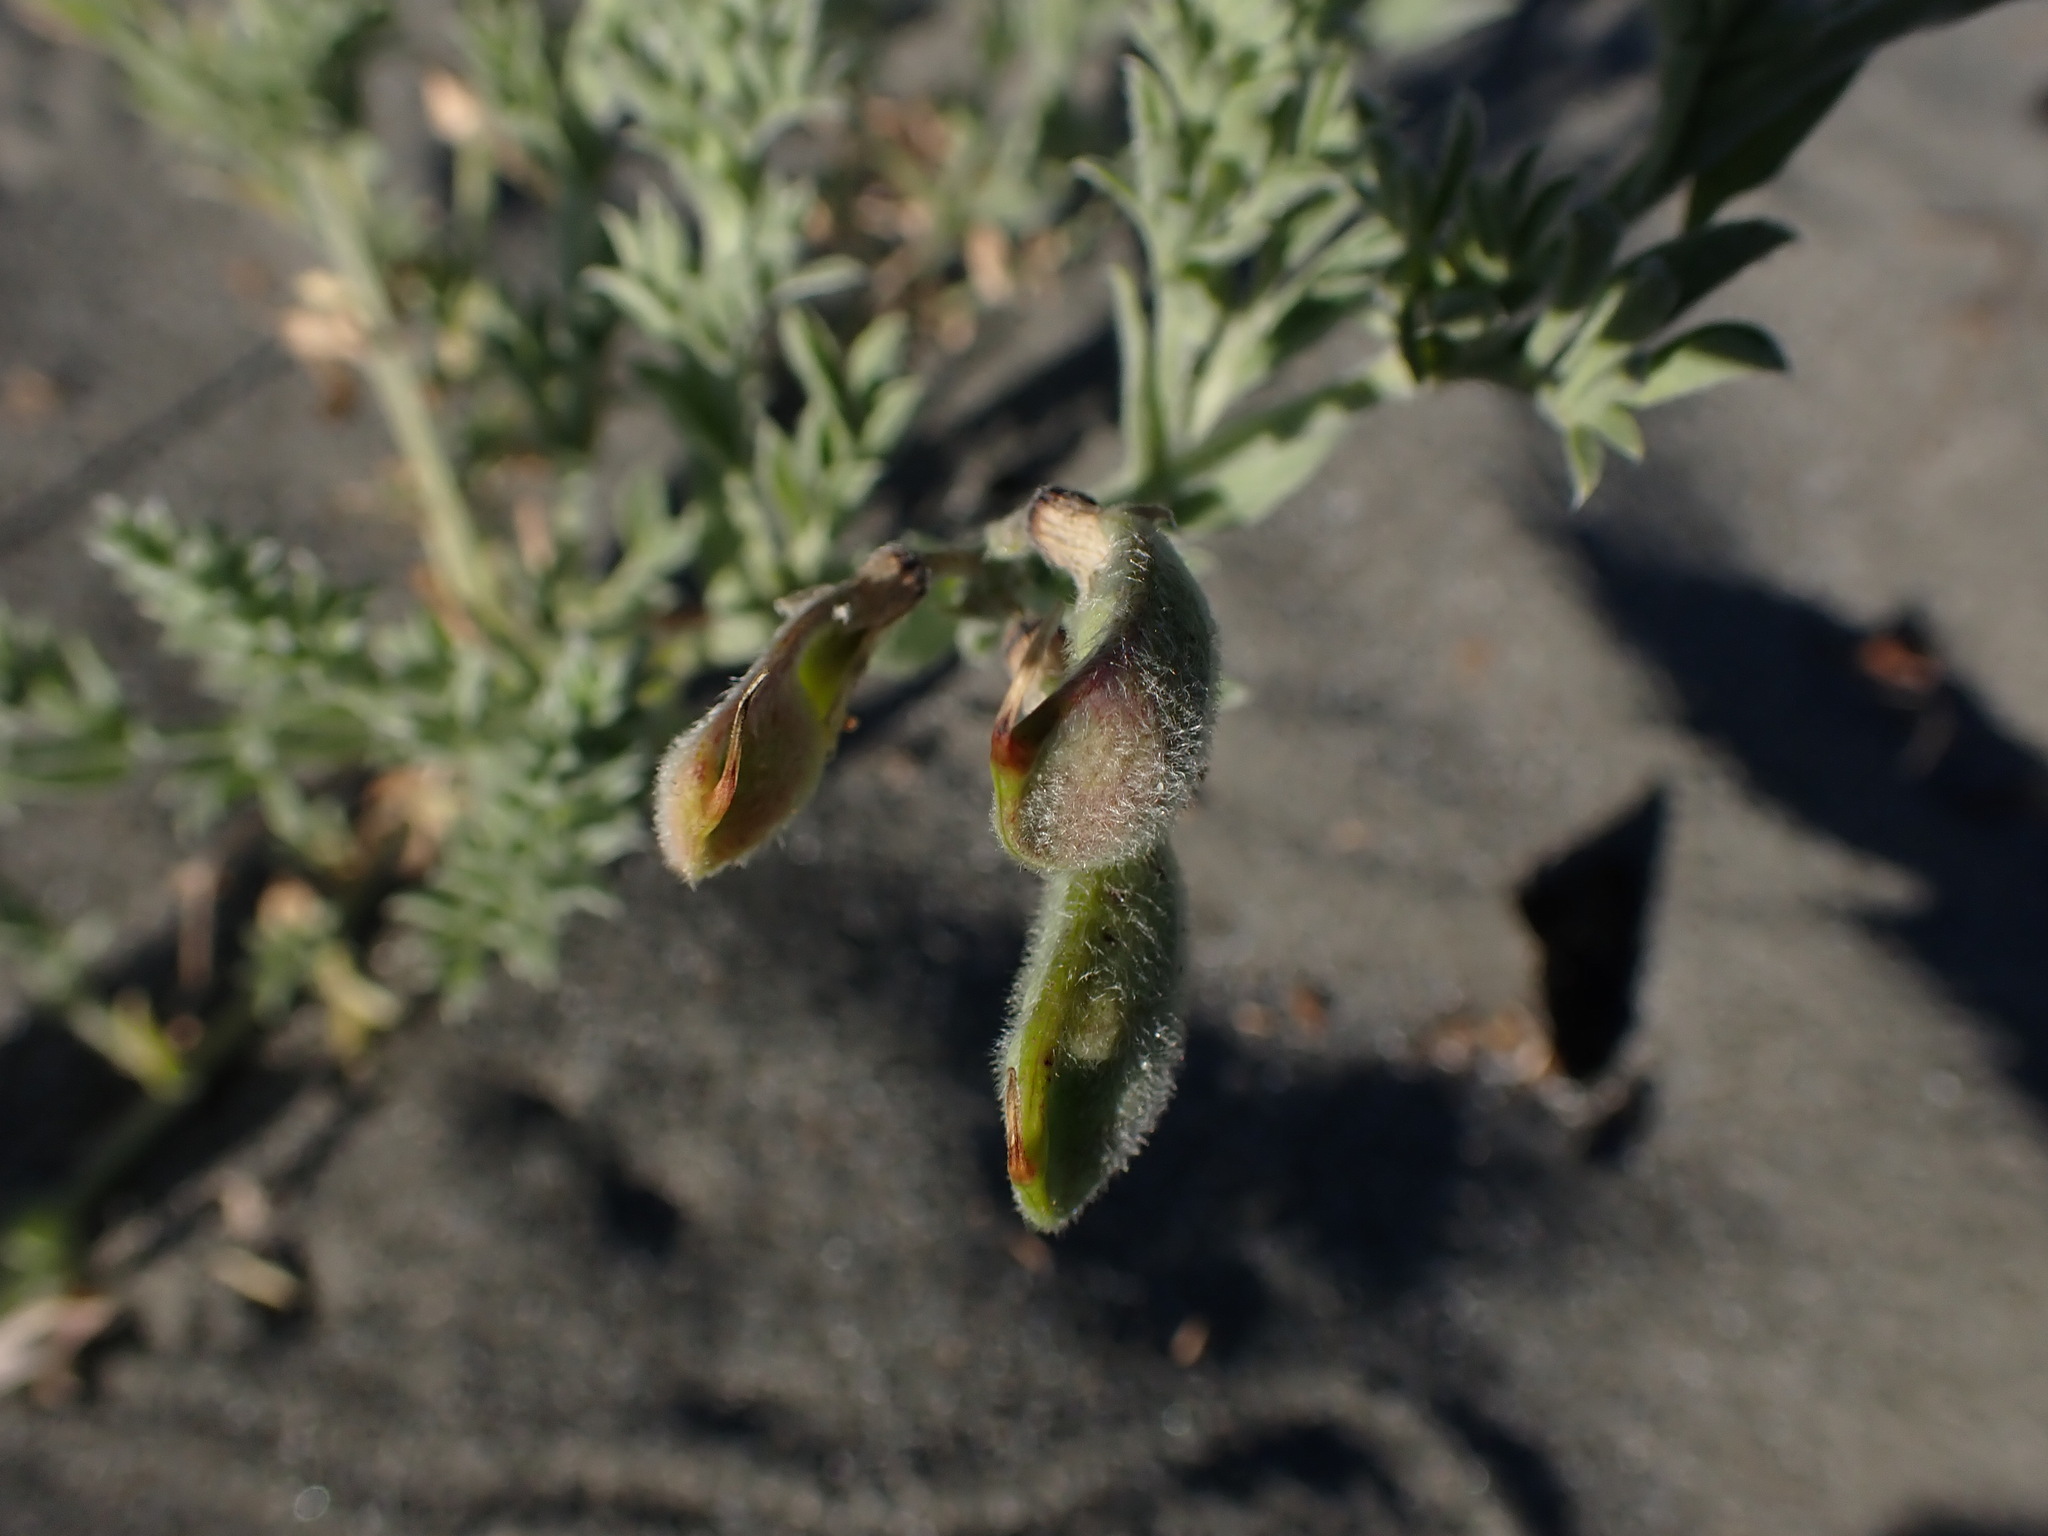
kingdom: Plantae
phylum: Tracheophyta
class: Magnoliopsida
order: Fabales
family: Fabaceae
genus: Lathyrus
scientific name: Lathyrus littoralis
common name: Dune sweet pea
